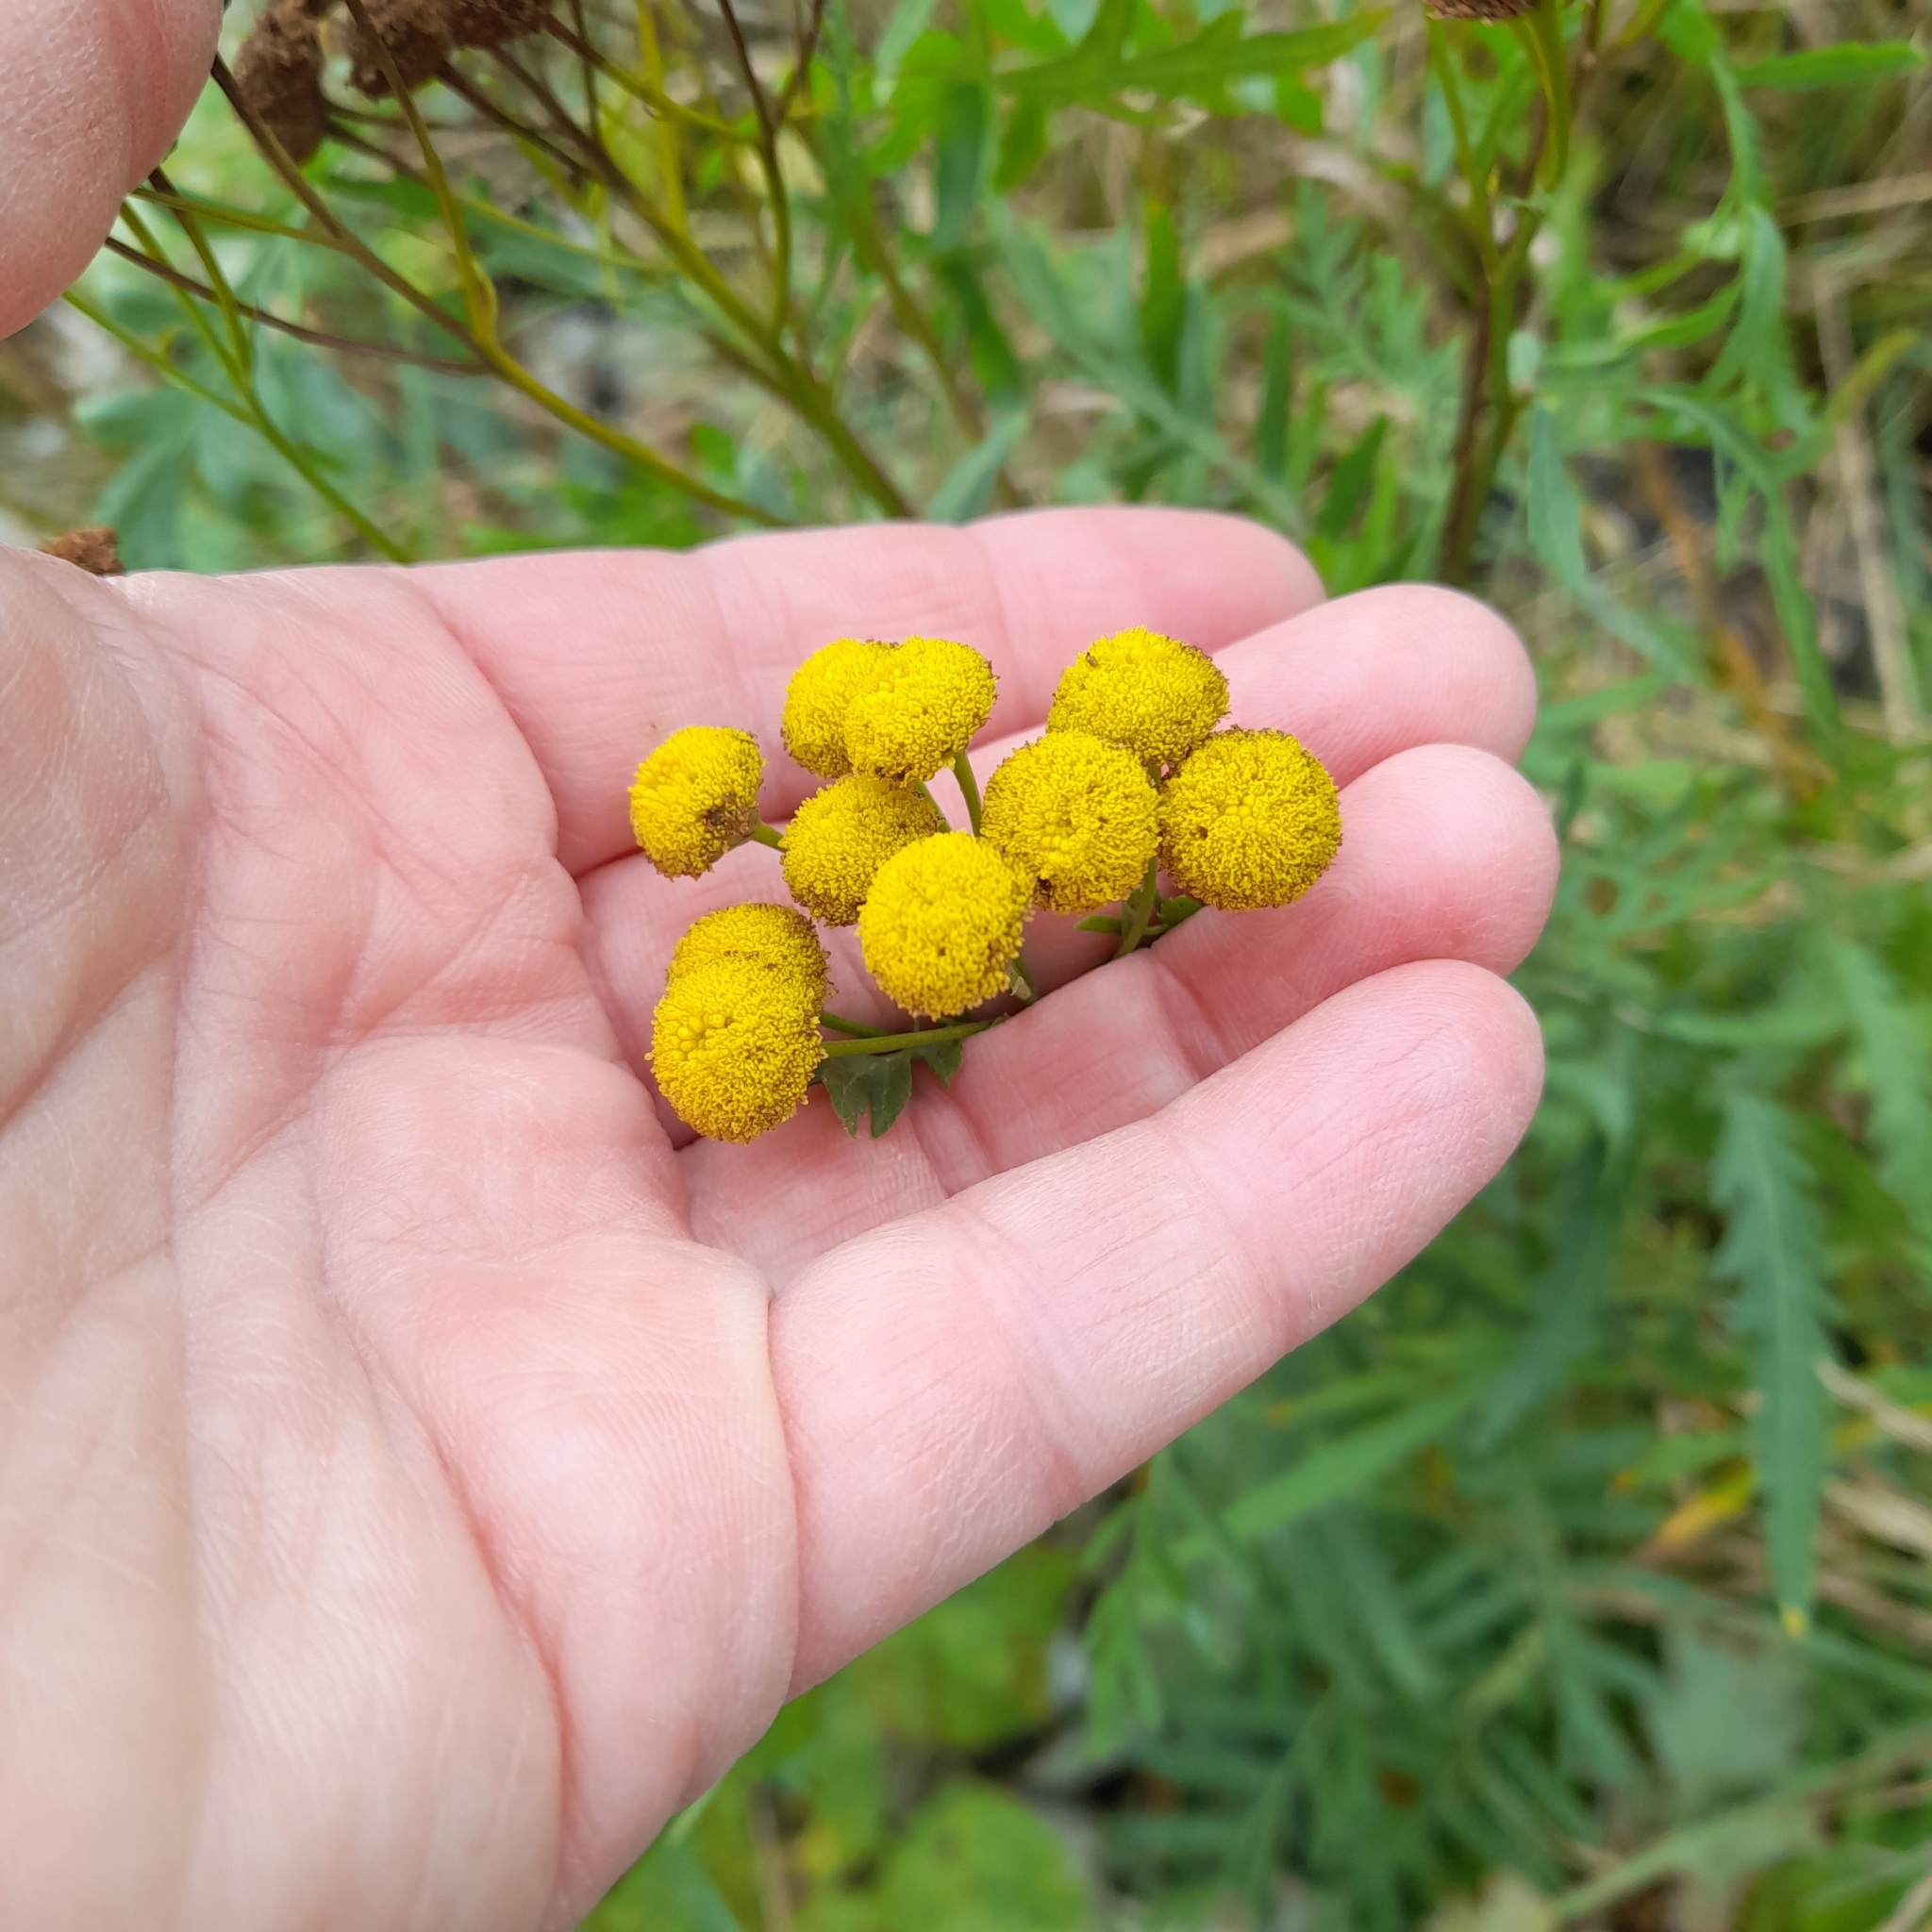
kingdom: Plantae
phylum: Tracheophyta
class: Magnoliopsida
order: Asterales
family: Asteraceae
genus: Tanacetum
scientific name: Tanacetum vulgare
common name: Common tansy
